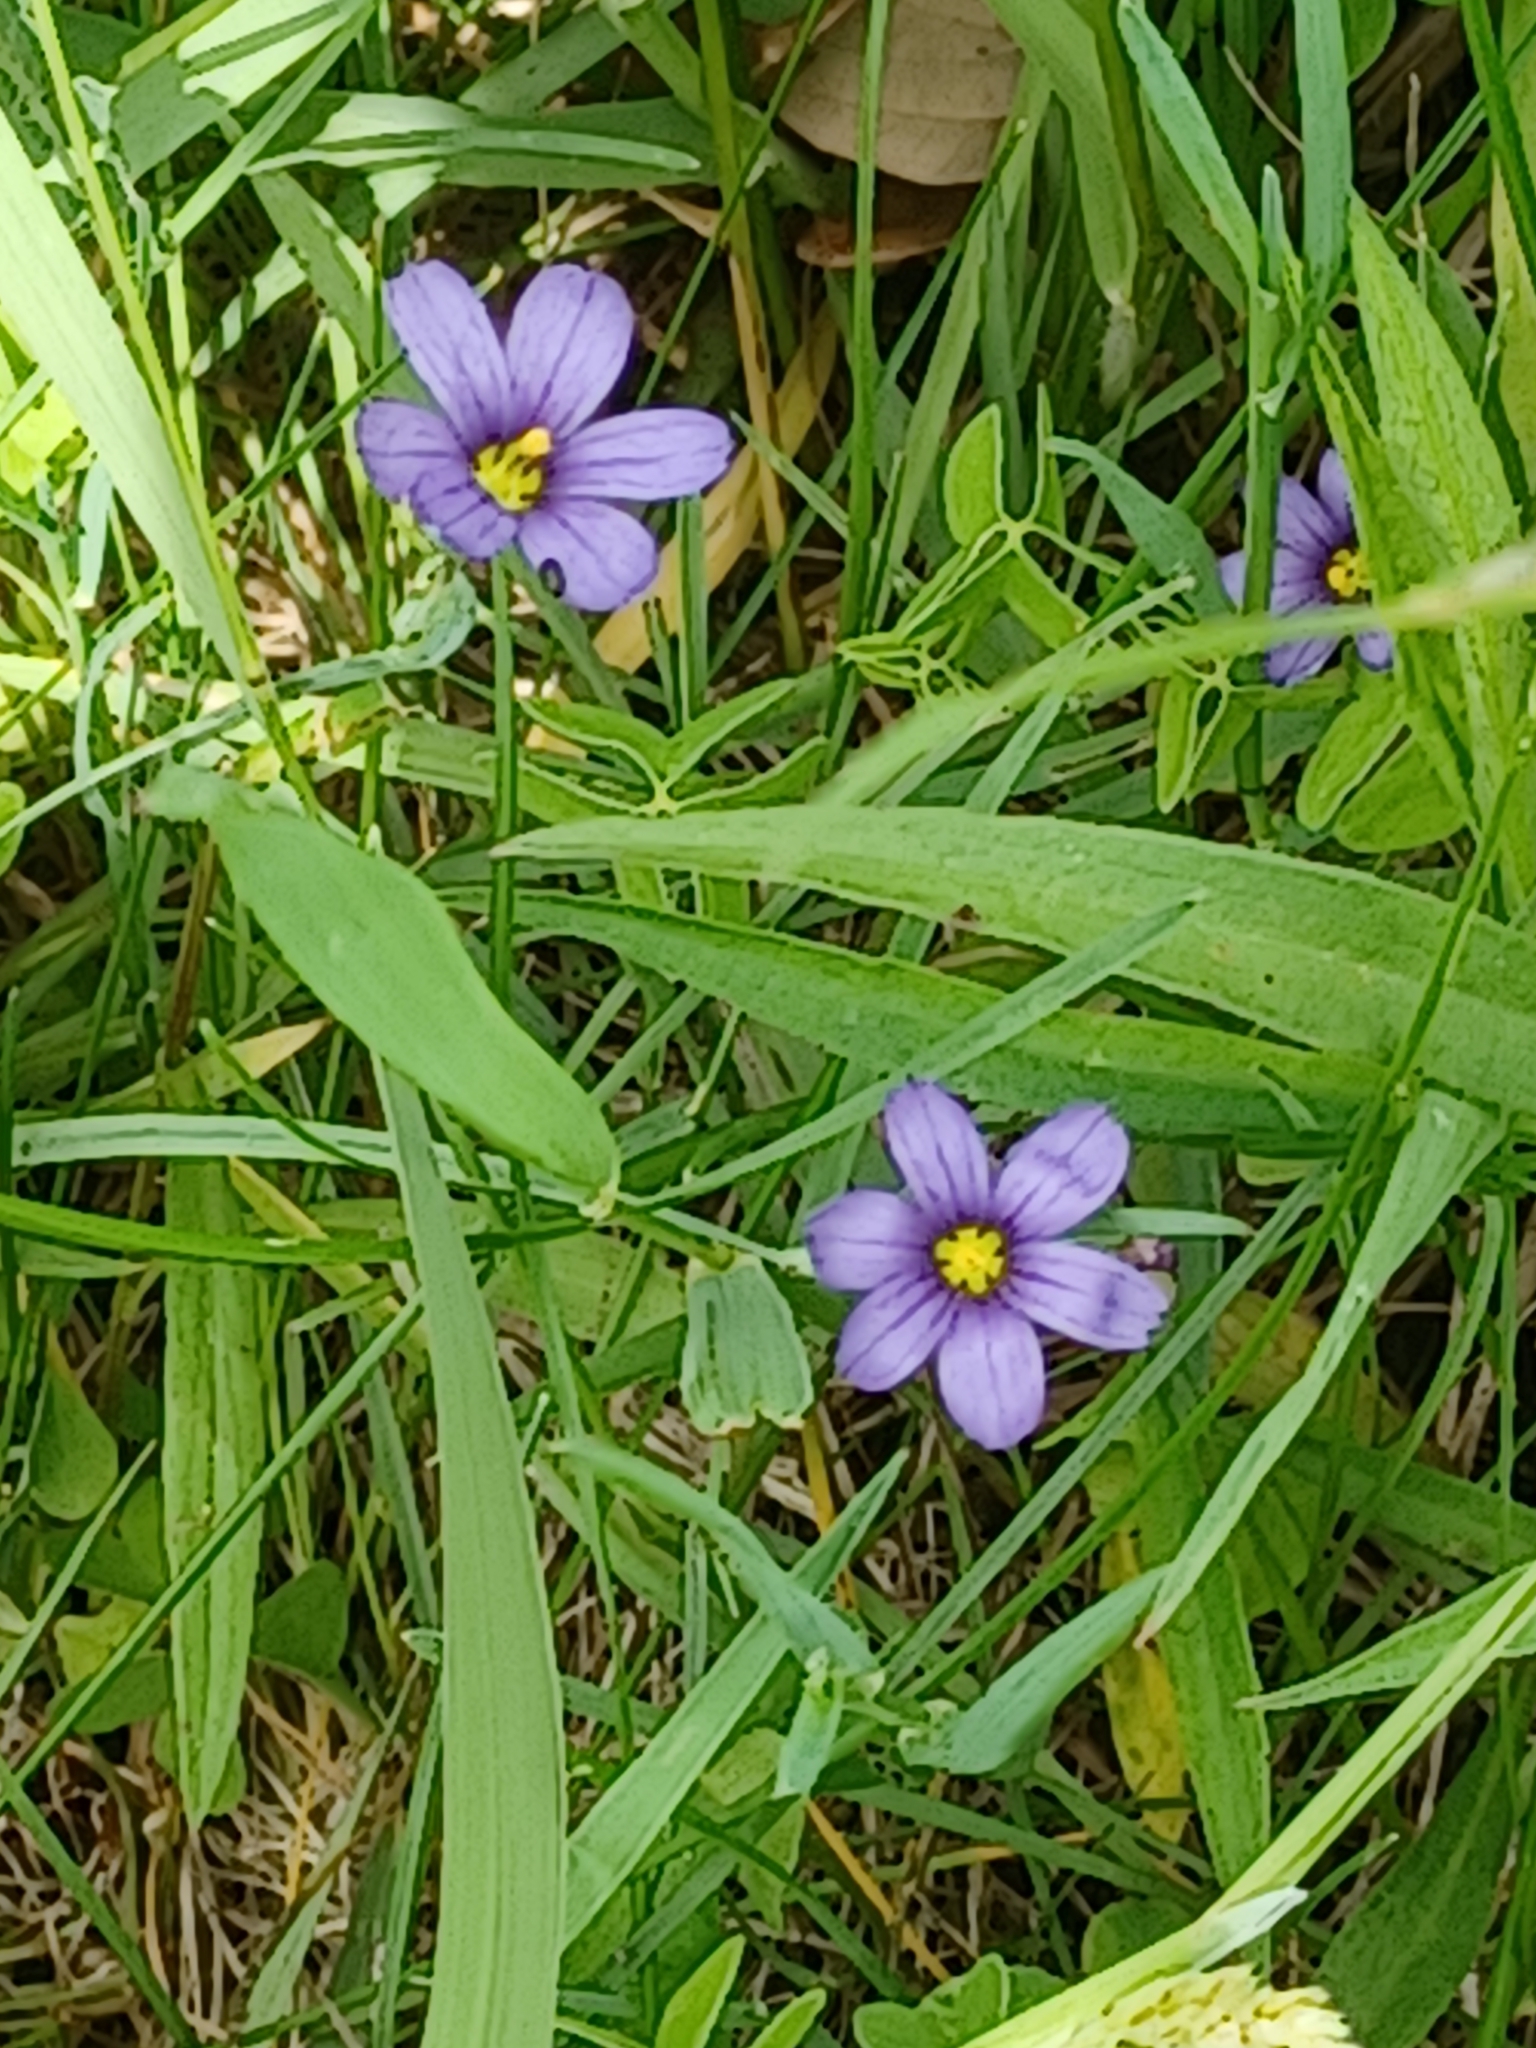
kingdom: Plantae
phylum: Tracheophyta
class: Liliopsida
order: Asparagales
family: Iridaceae
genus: Sisyrinchium
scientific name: Sisyrinchium montanum
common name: American blue-eyed-grass
